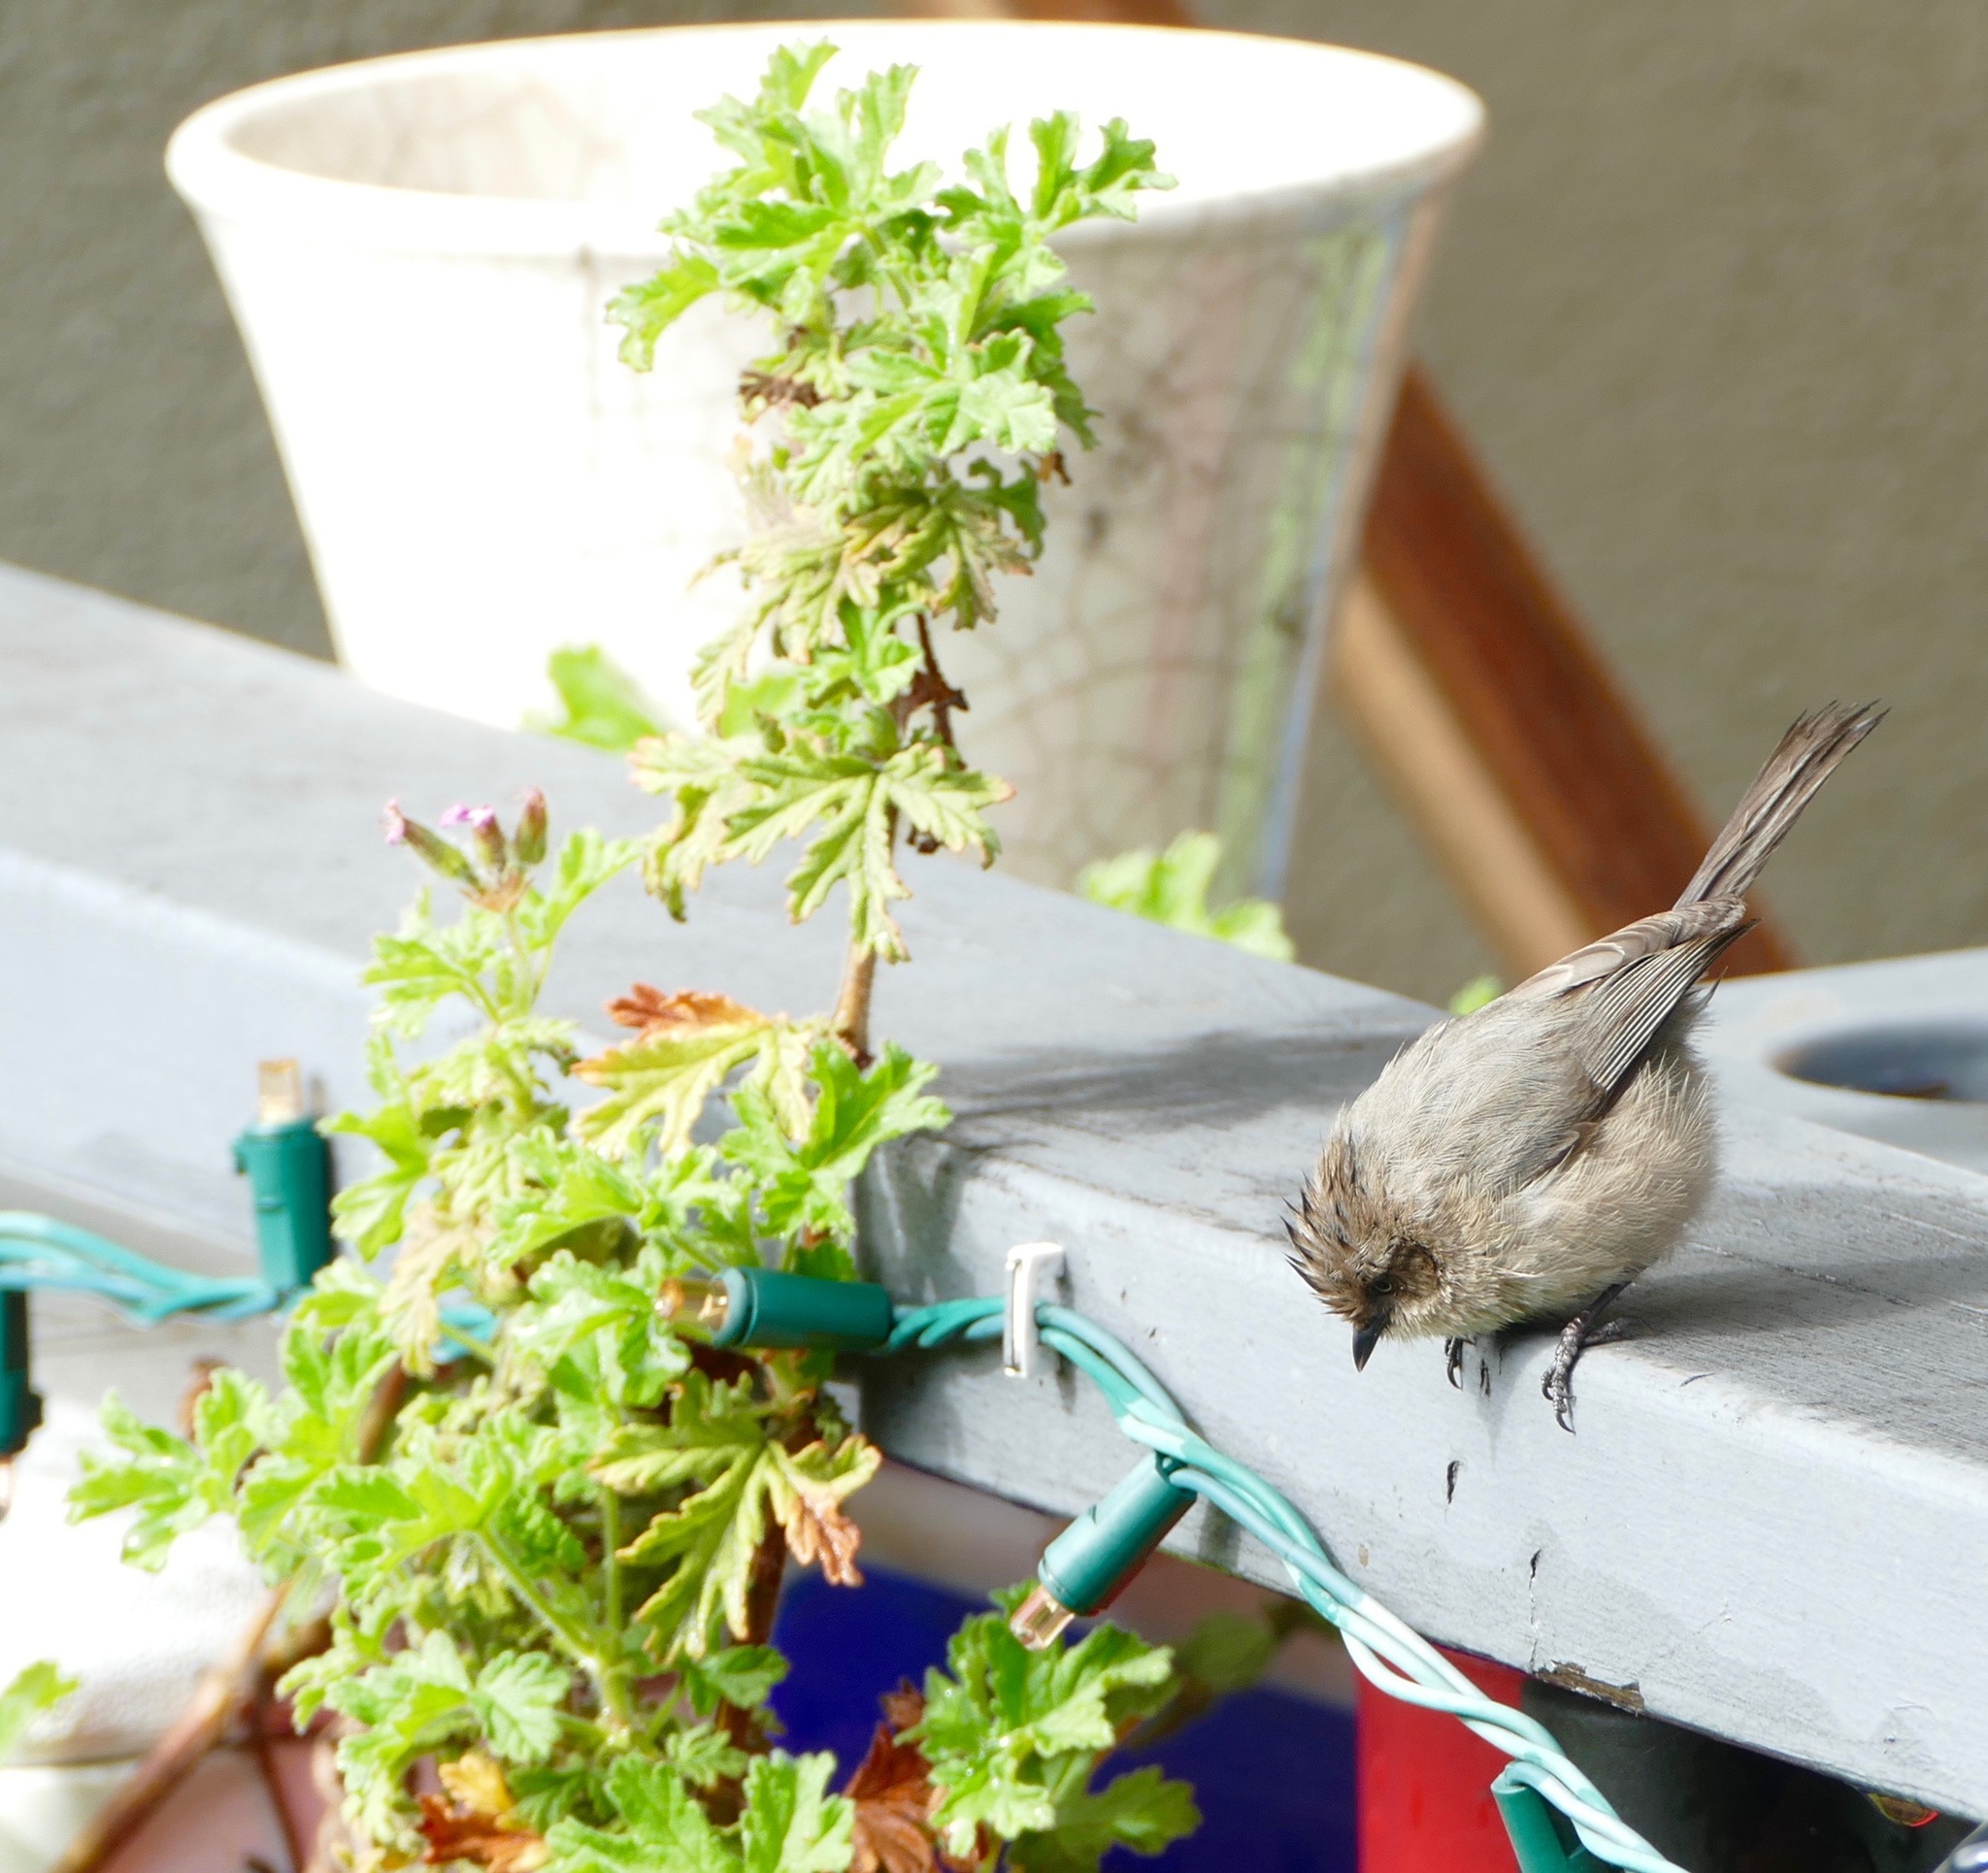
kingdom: Animalia
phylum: Chordata
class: Aves
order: Passeriformes
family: Aegithalidae
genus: Psaltriparus
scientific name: Psaltriparus minimus
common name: American bushtit
